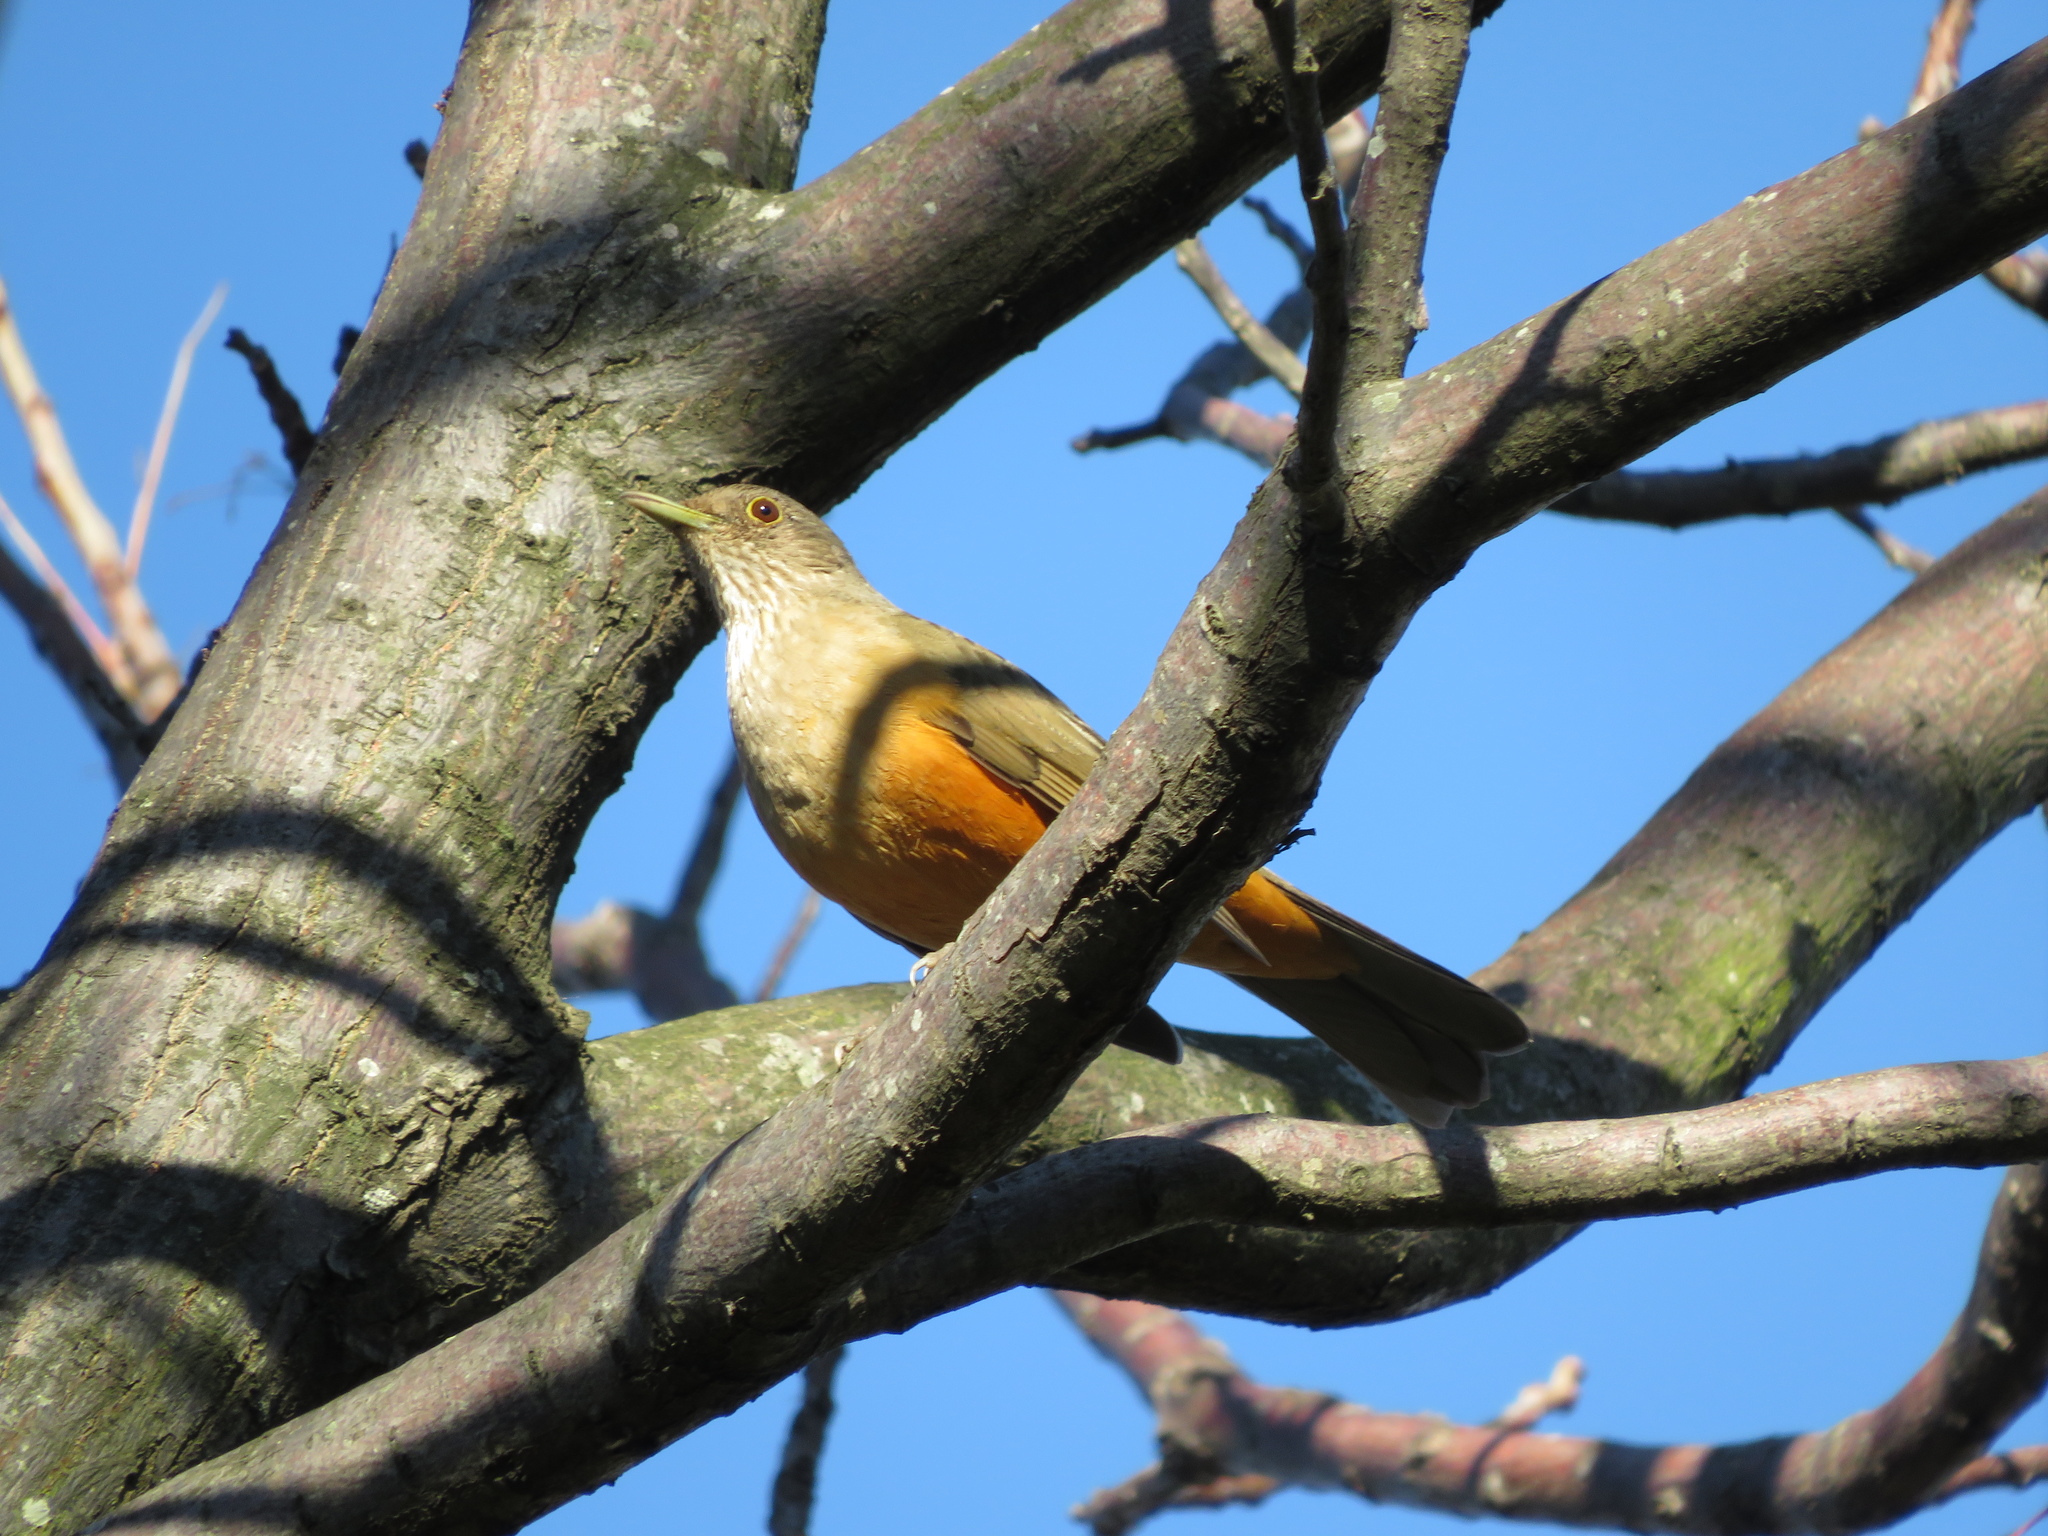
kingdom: Animalia
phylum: Chordata
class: Aves
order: Passeriformes
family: Turdidae
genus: Turdus
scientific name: Turdus rufiventris
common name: Rufous-bellied thrush
